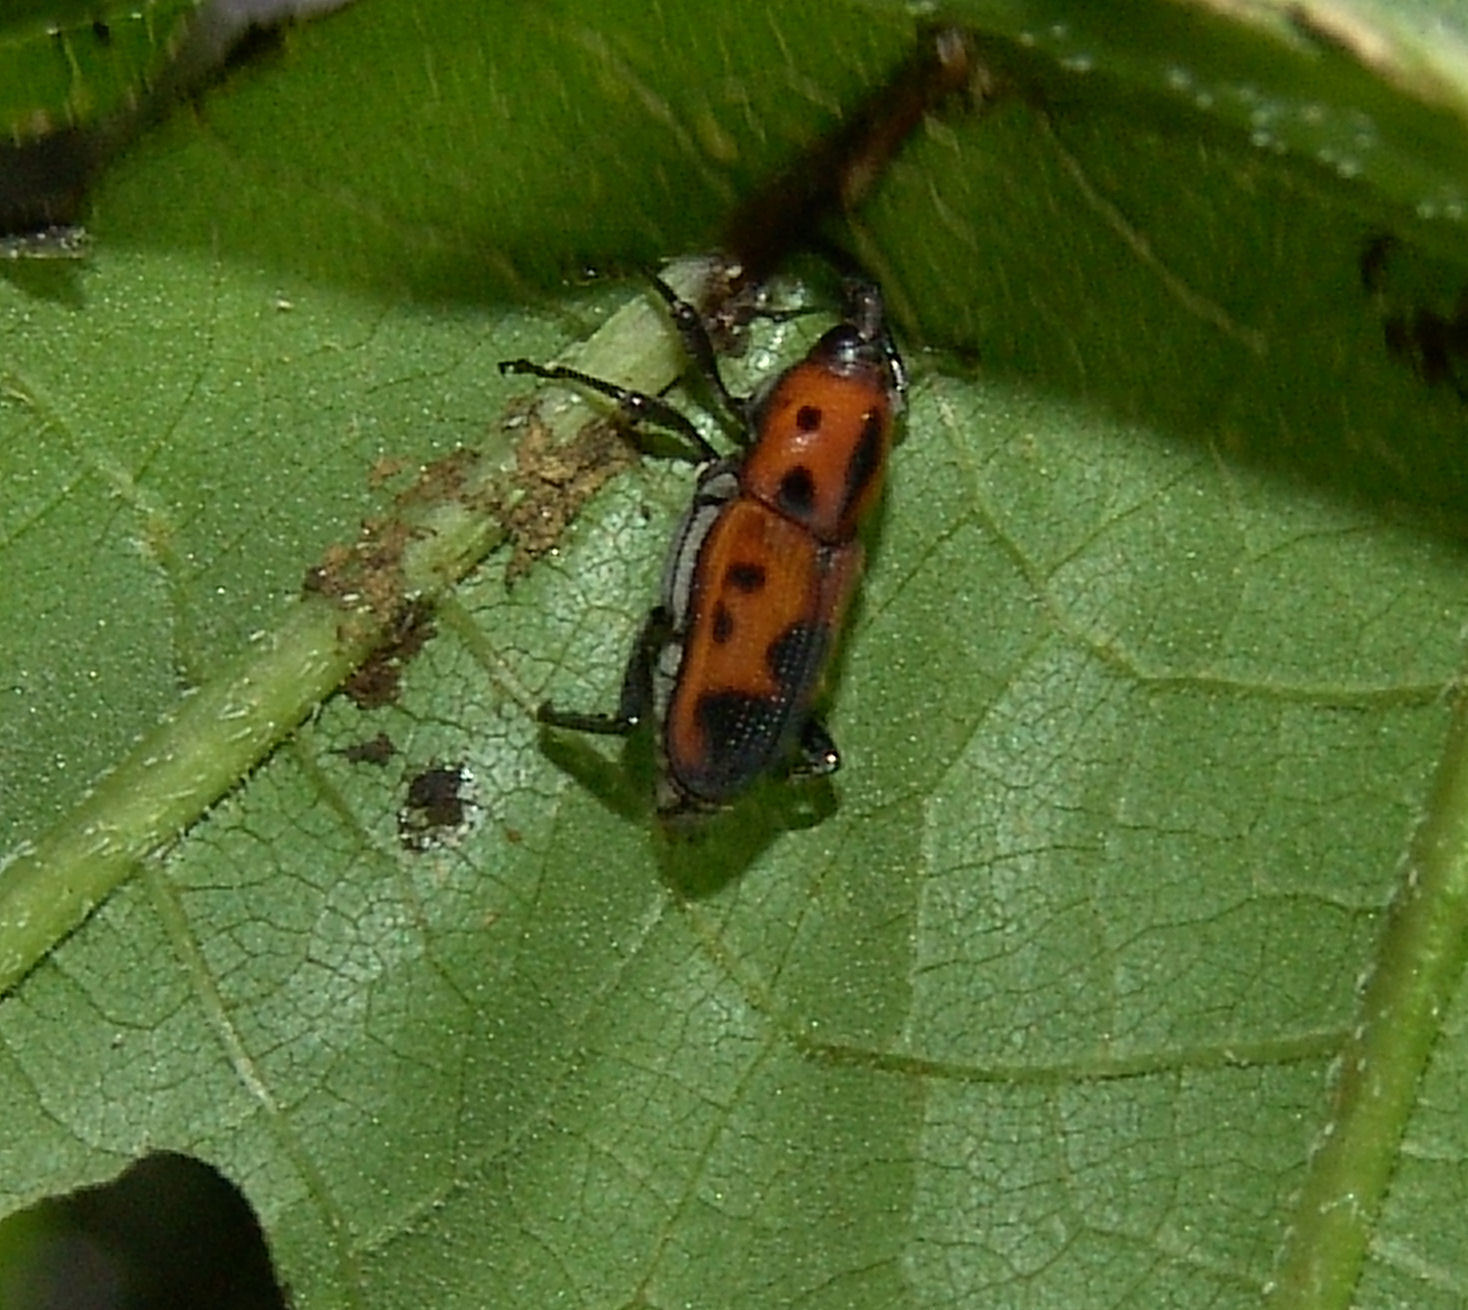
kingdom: Animalia
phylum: Arthropoda
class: Insecta
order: Coleoptera
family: Dryophthoridae
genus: Rhodobaenus
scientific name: Rhodobaenus quinquepunctatus
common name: Cocklebur weevil
